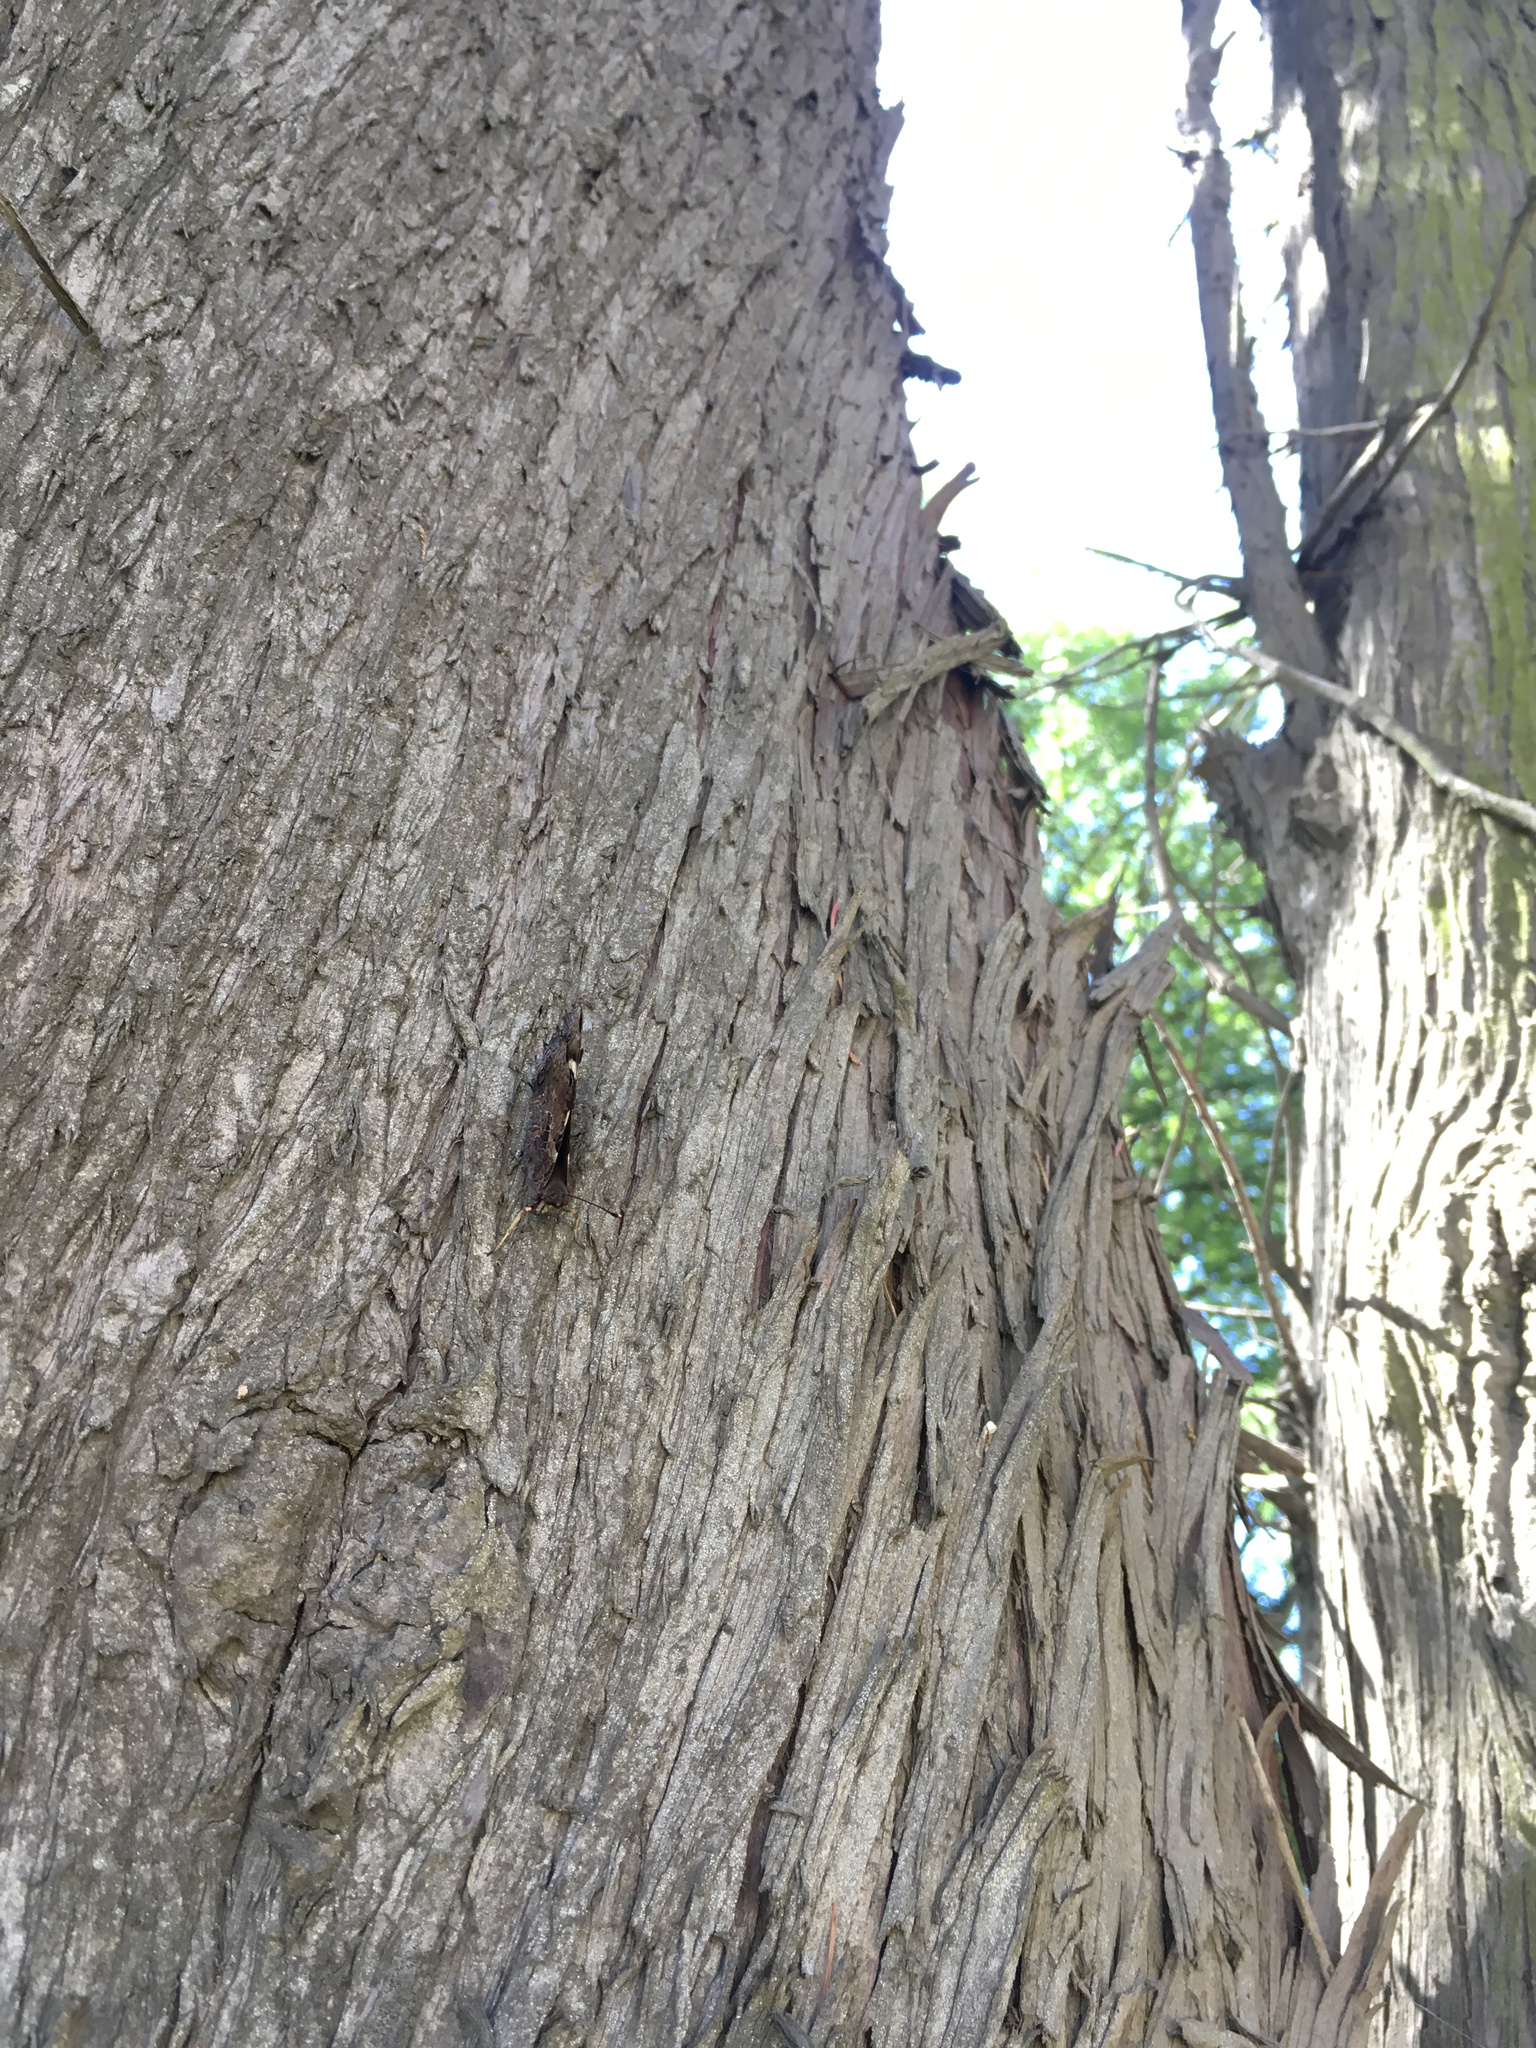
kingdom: Animalia
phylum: Arthropoda
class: Insecta
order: Lepidoptera
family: Nymphalidae
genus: Vanessa
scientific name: Vanessa gonerilla
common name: New zealand red admiral
